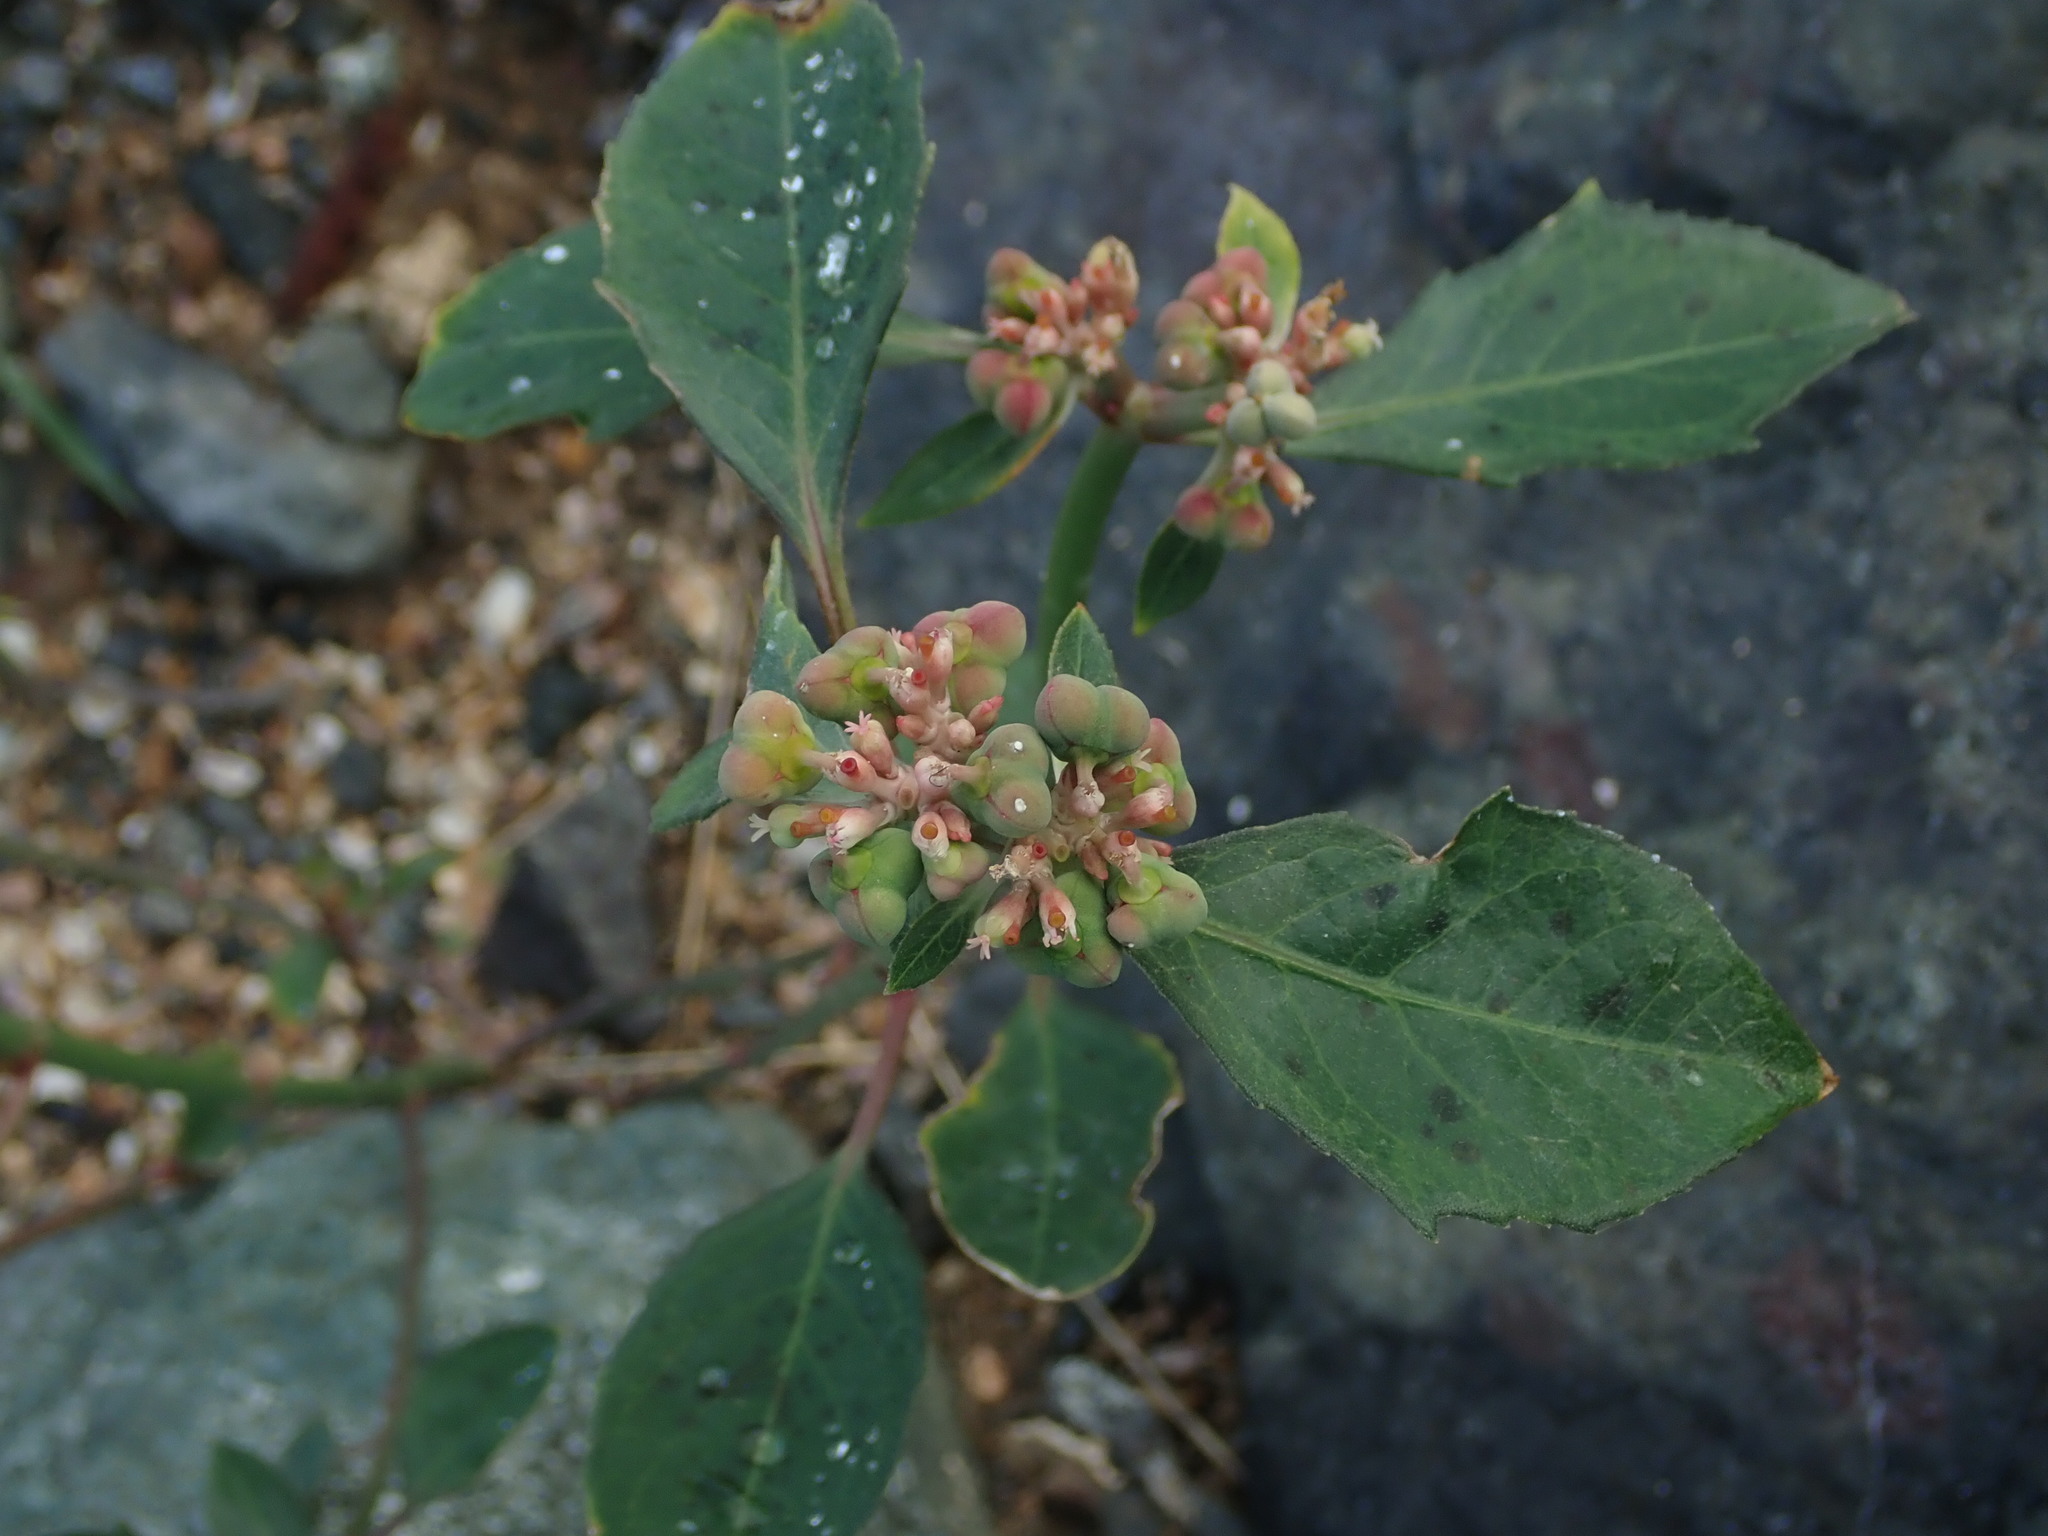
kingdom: Plantae
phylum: Tracheophyta
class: Magnoliopsida
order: Malpighiales
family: Euphorbiaceae
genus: Euphorbia
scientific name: Euphorbia heterophylla
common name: Mexican fireplant
